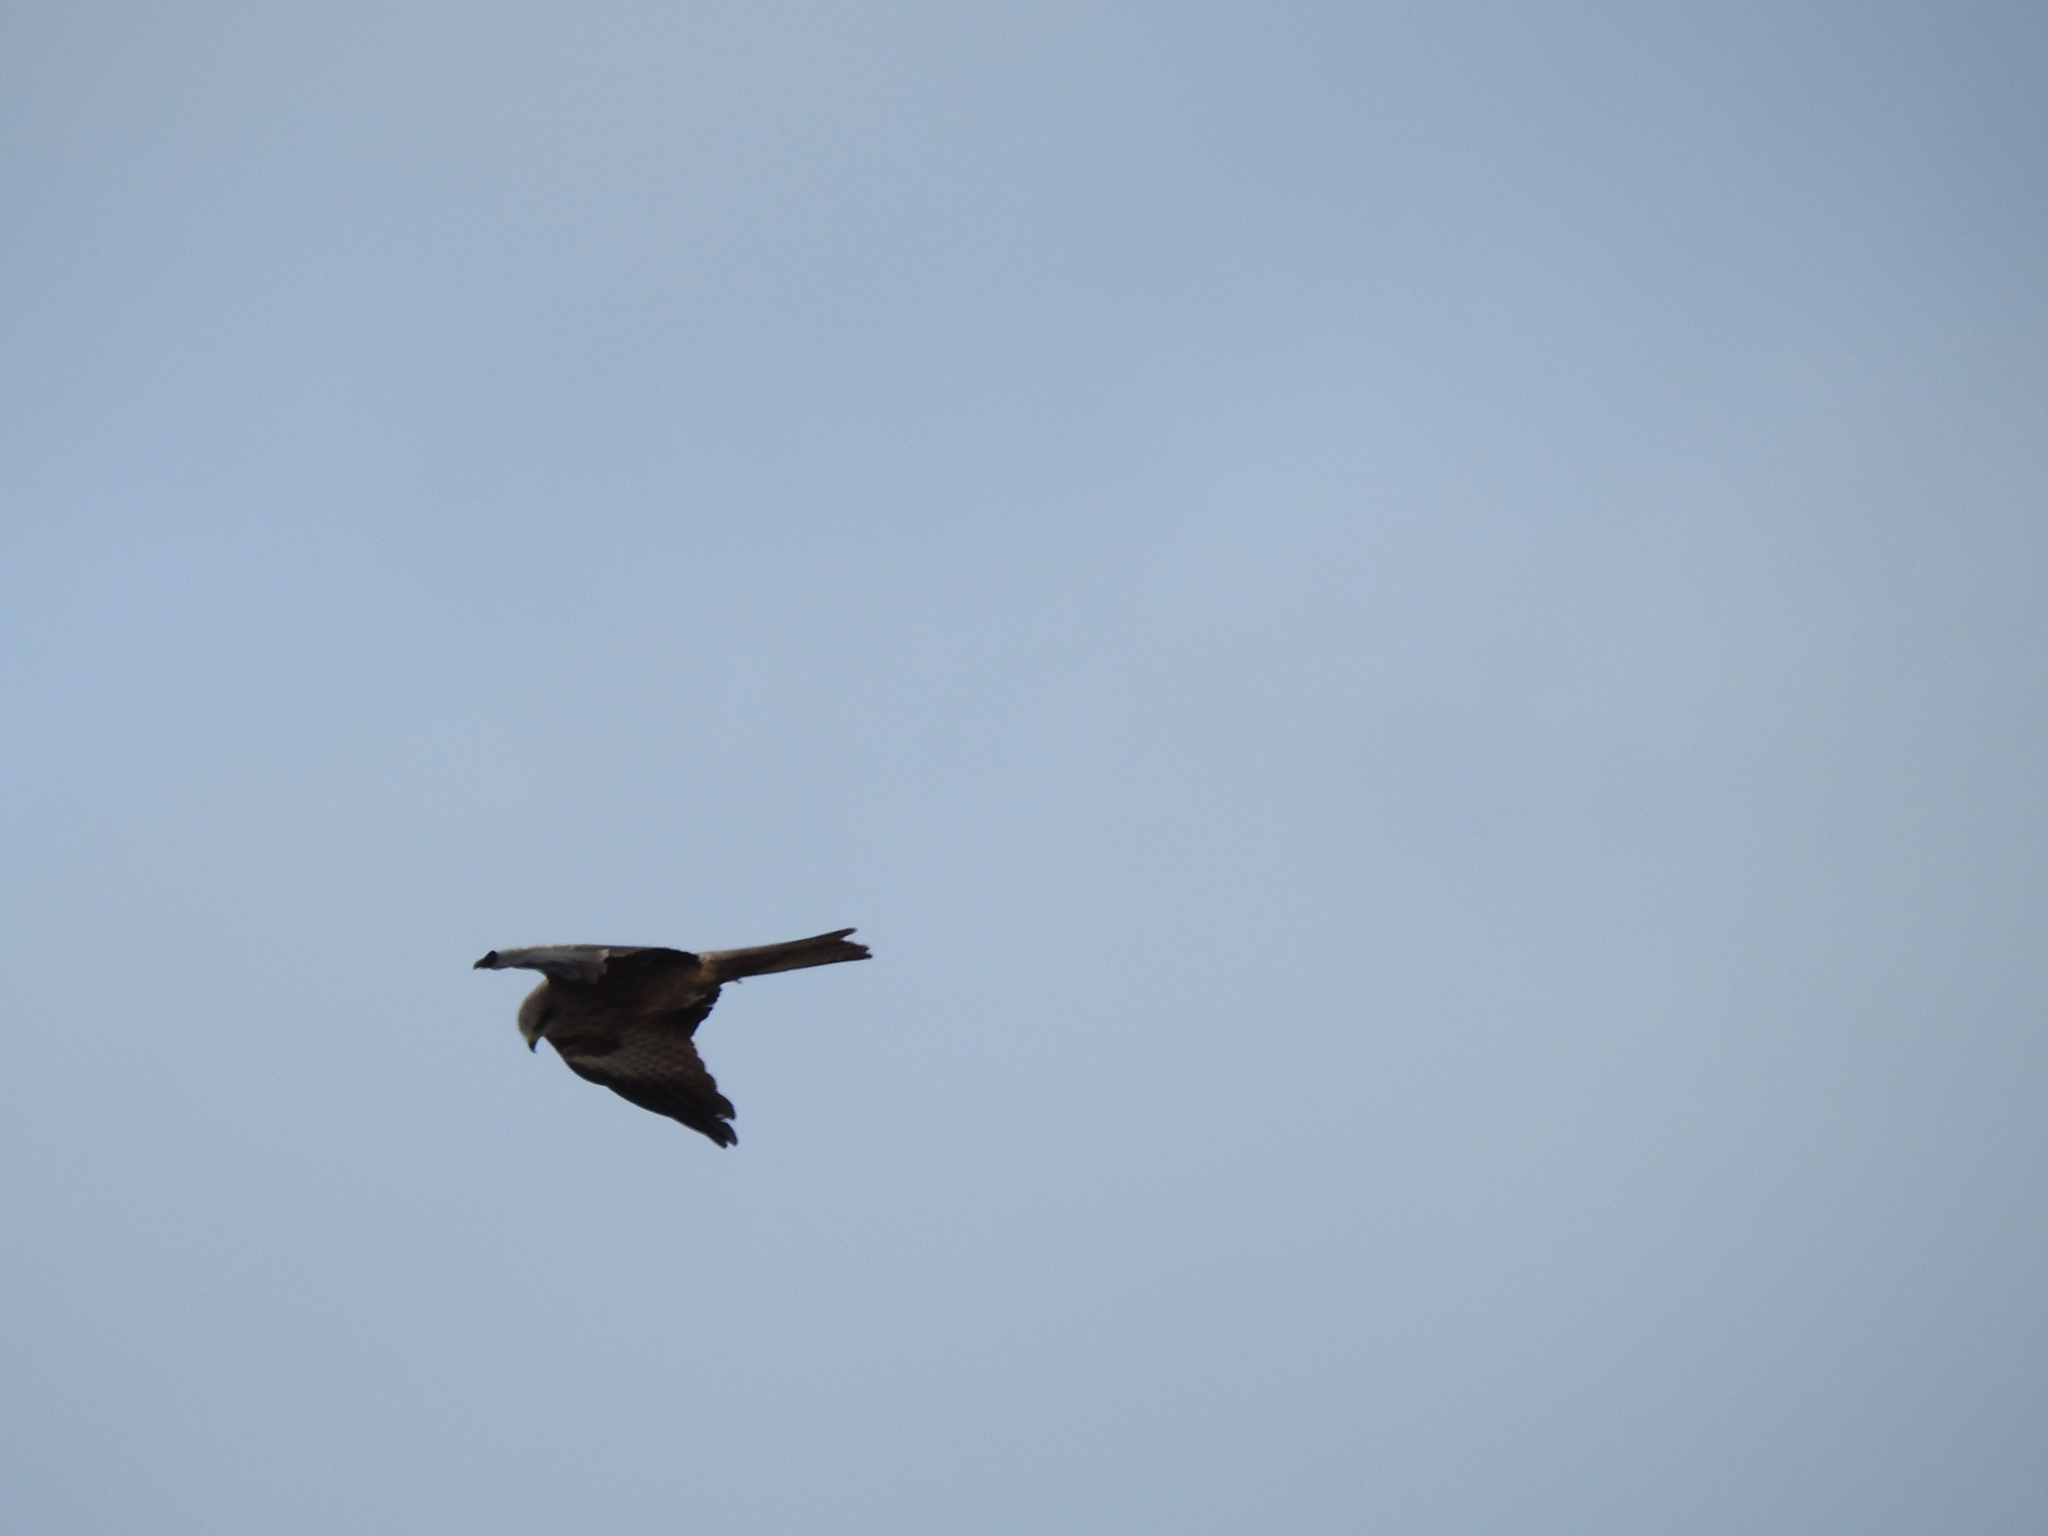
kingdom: Animalia
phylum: Chordata
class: Aves
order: Accipitriformes
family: Accipitridae
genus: Milvus
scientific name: Milvus migrans
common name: Black kite
